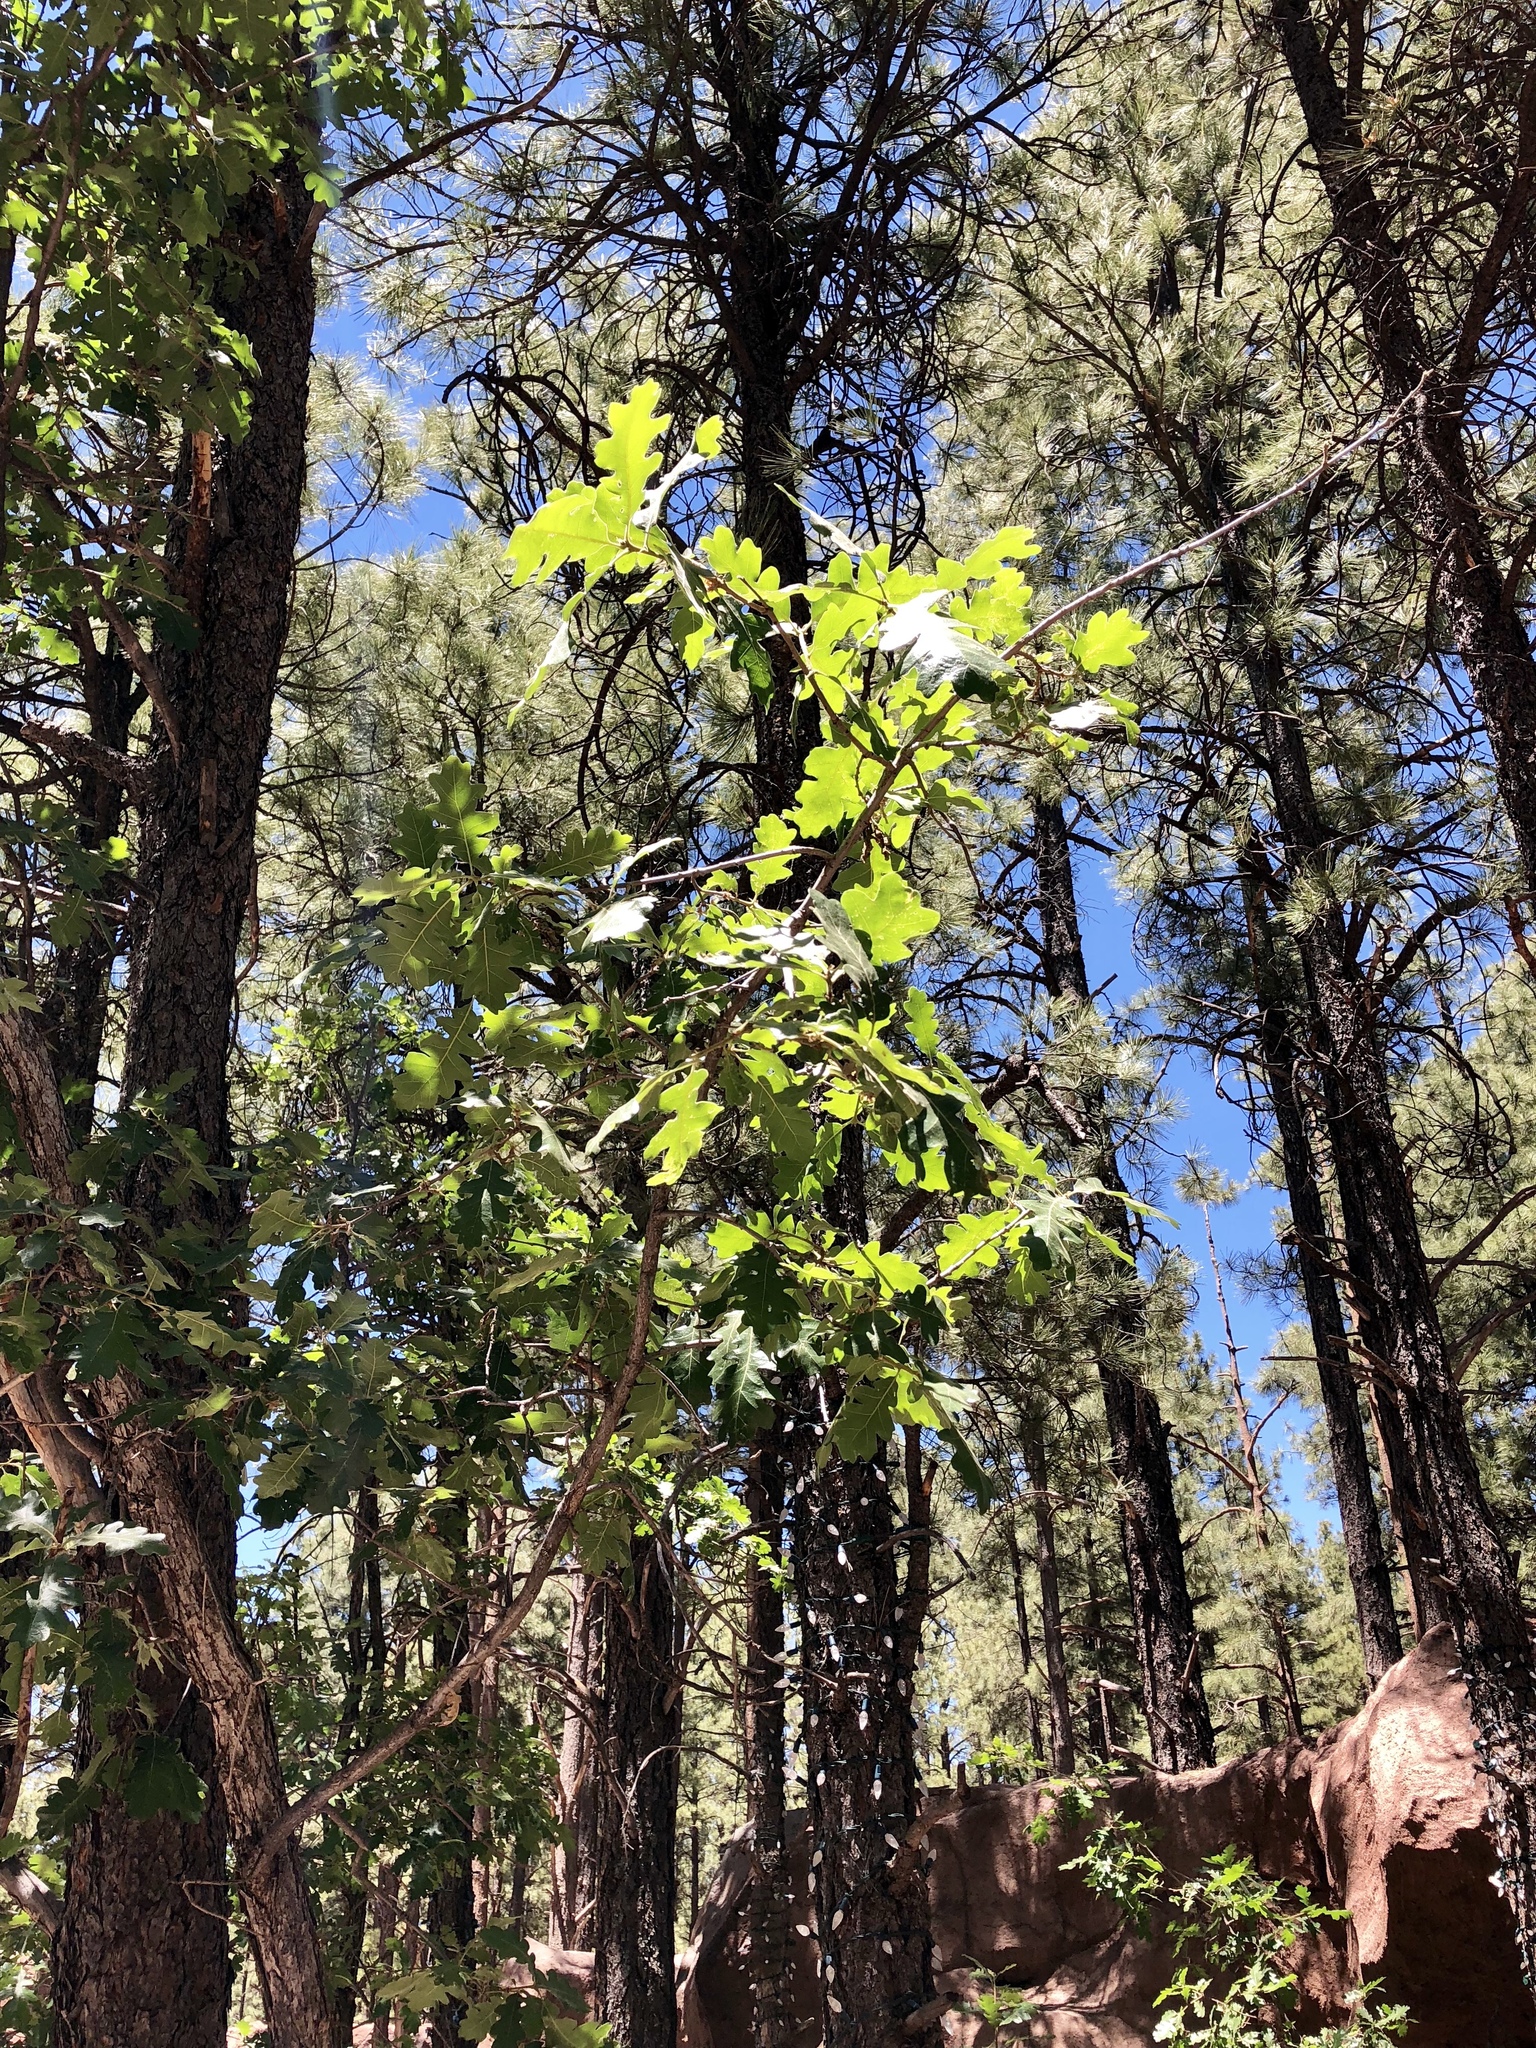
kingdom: Plantae
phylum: Tracheophyta
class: Magnoliopsida
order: Fagales
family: Fagaceae
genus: Quercus
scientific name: Quercus gambelii
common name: Gambel oak
